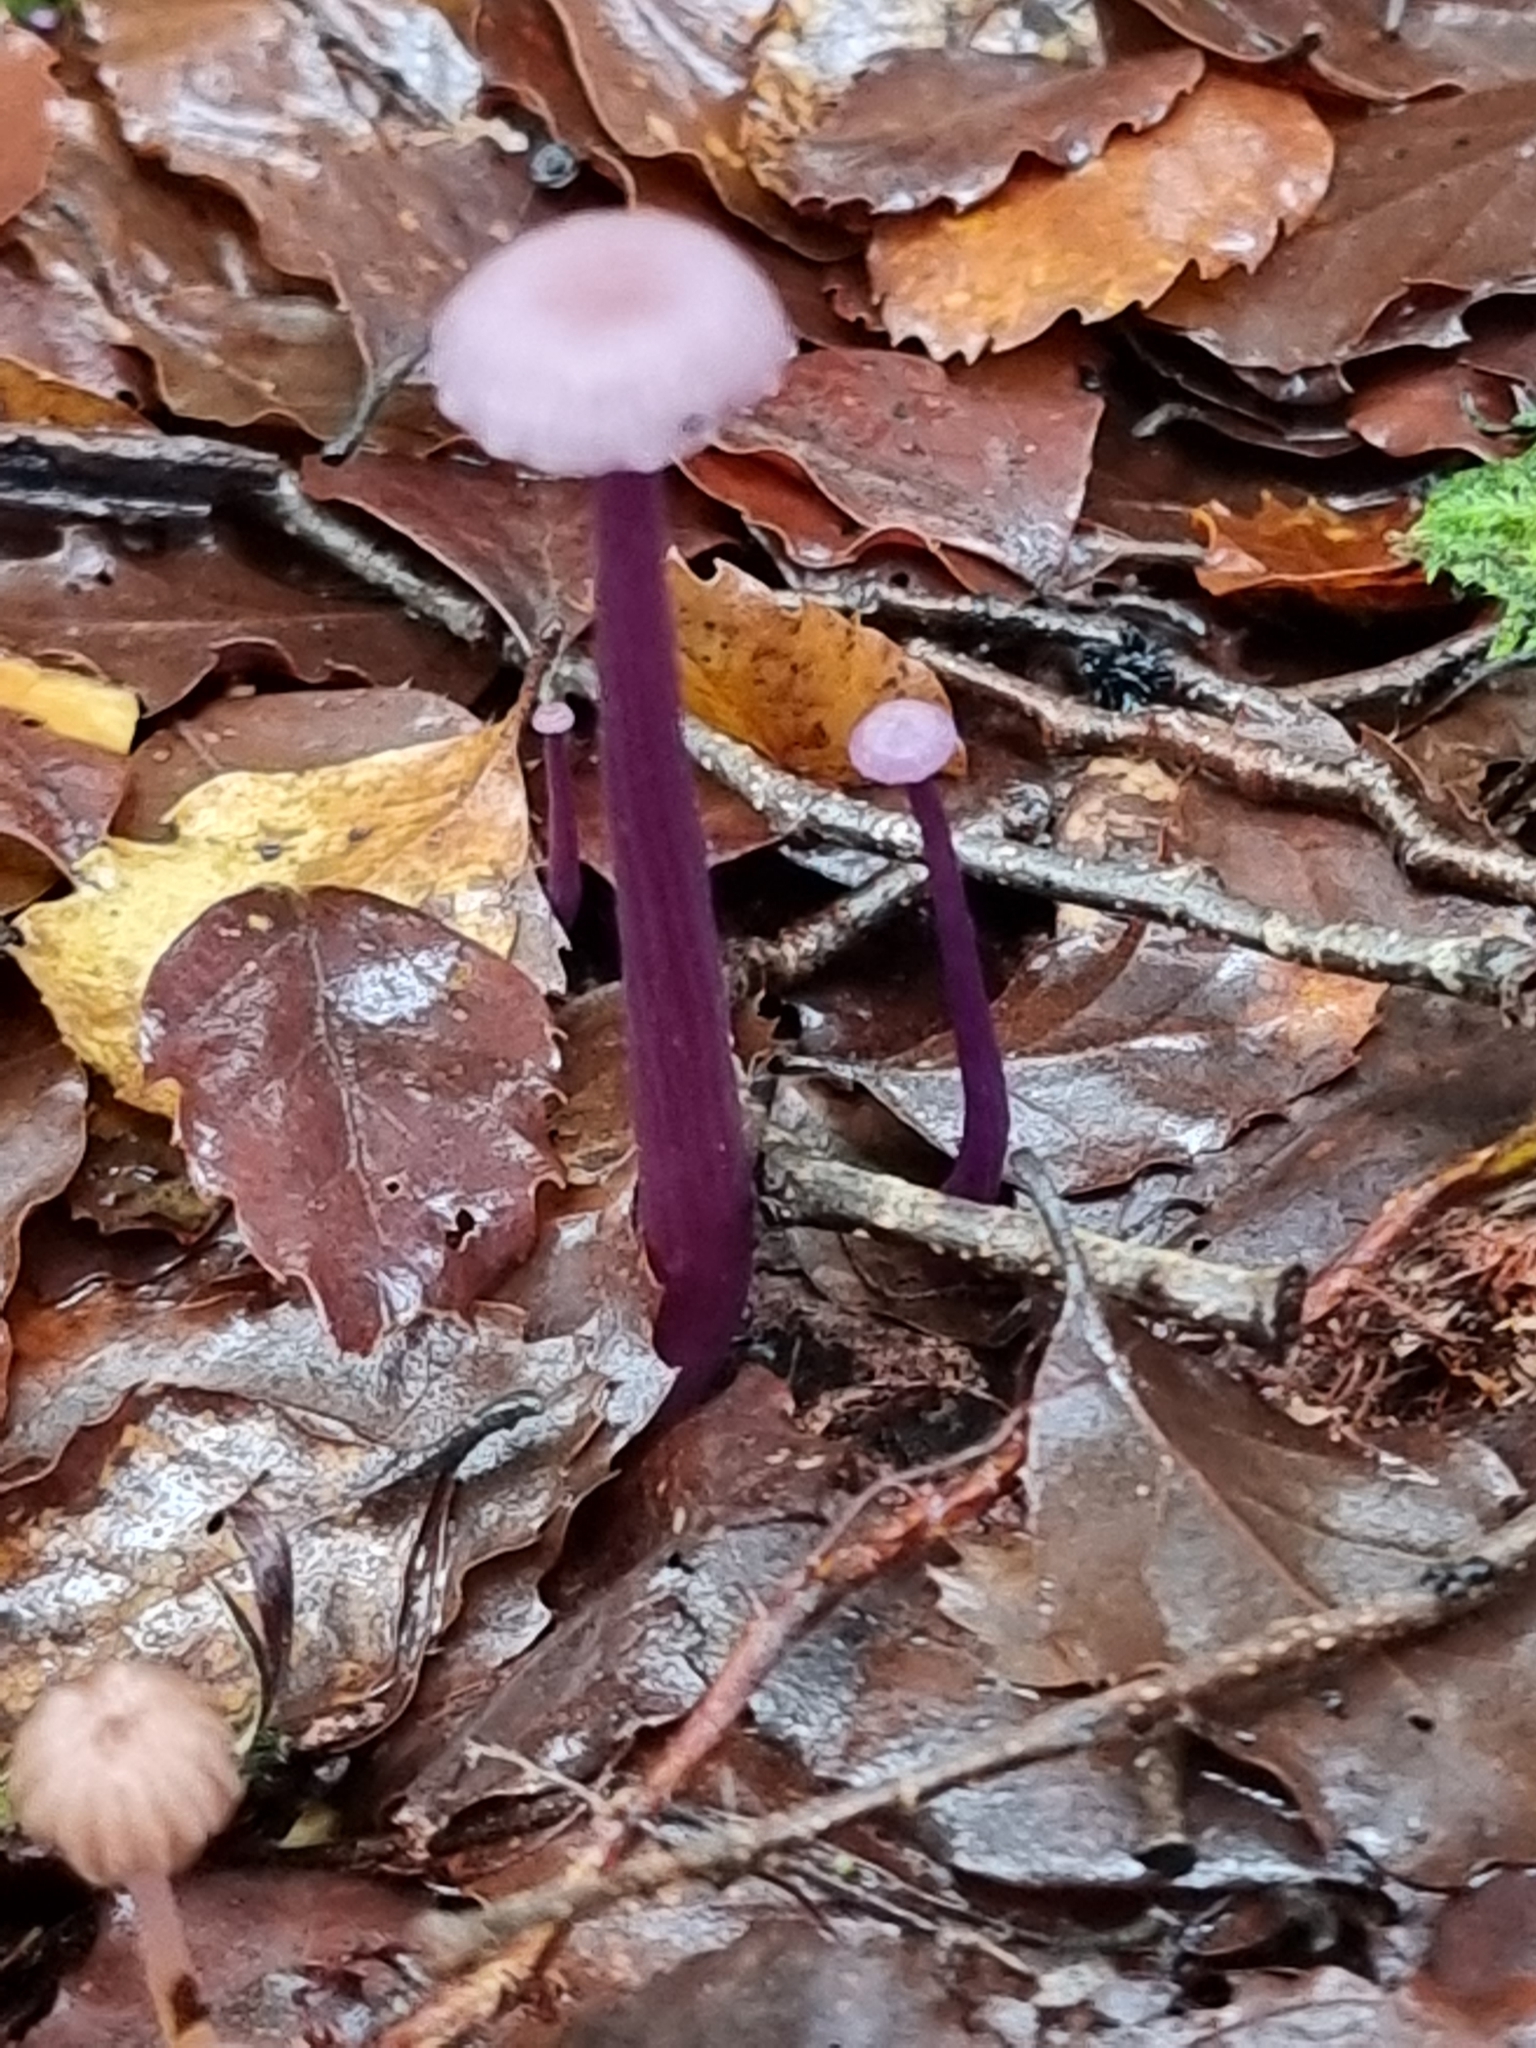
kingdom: Fungi
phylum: Basidiomycota
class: Agaricomycetes
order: Agaricales
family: Hydnangiaceae
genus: Laccaria
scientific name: Laccaria masoniae
